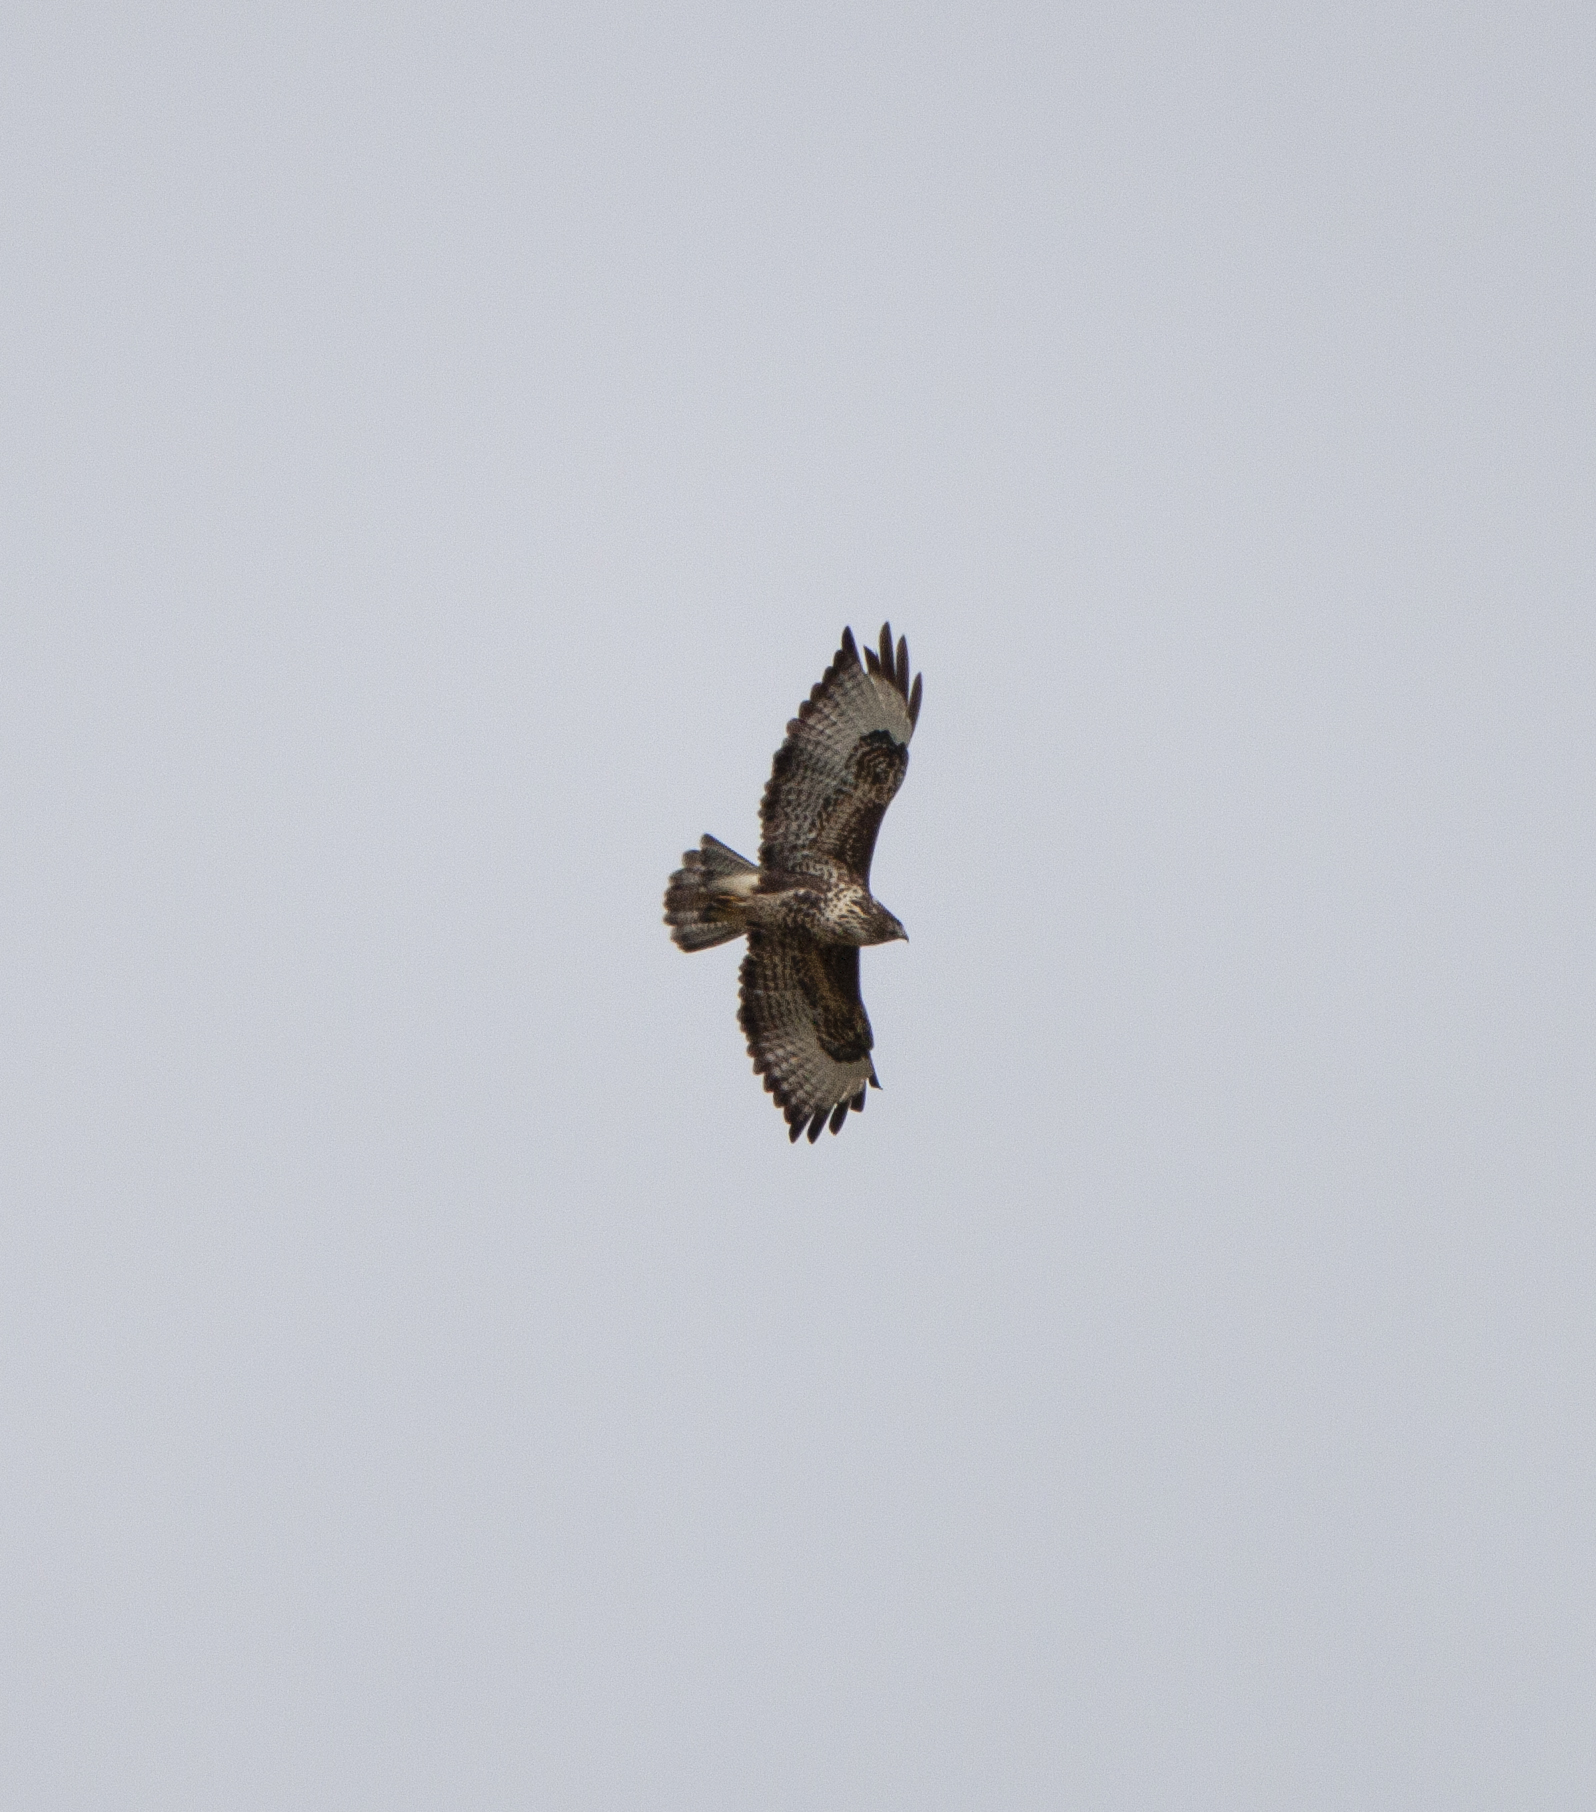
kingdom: Animalia
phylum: Chordata
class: Aves
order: Accipitriformes
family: Accipitridae
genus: Buteo
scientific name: Buteo buteo
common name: Common buzzard
